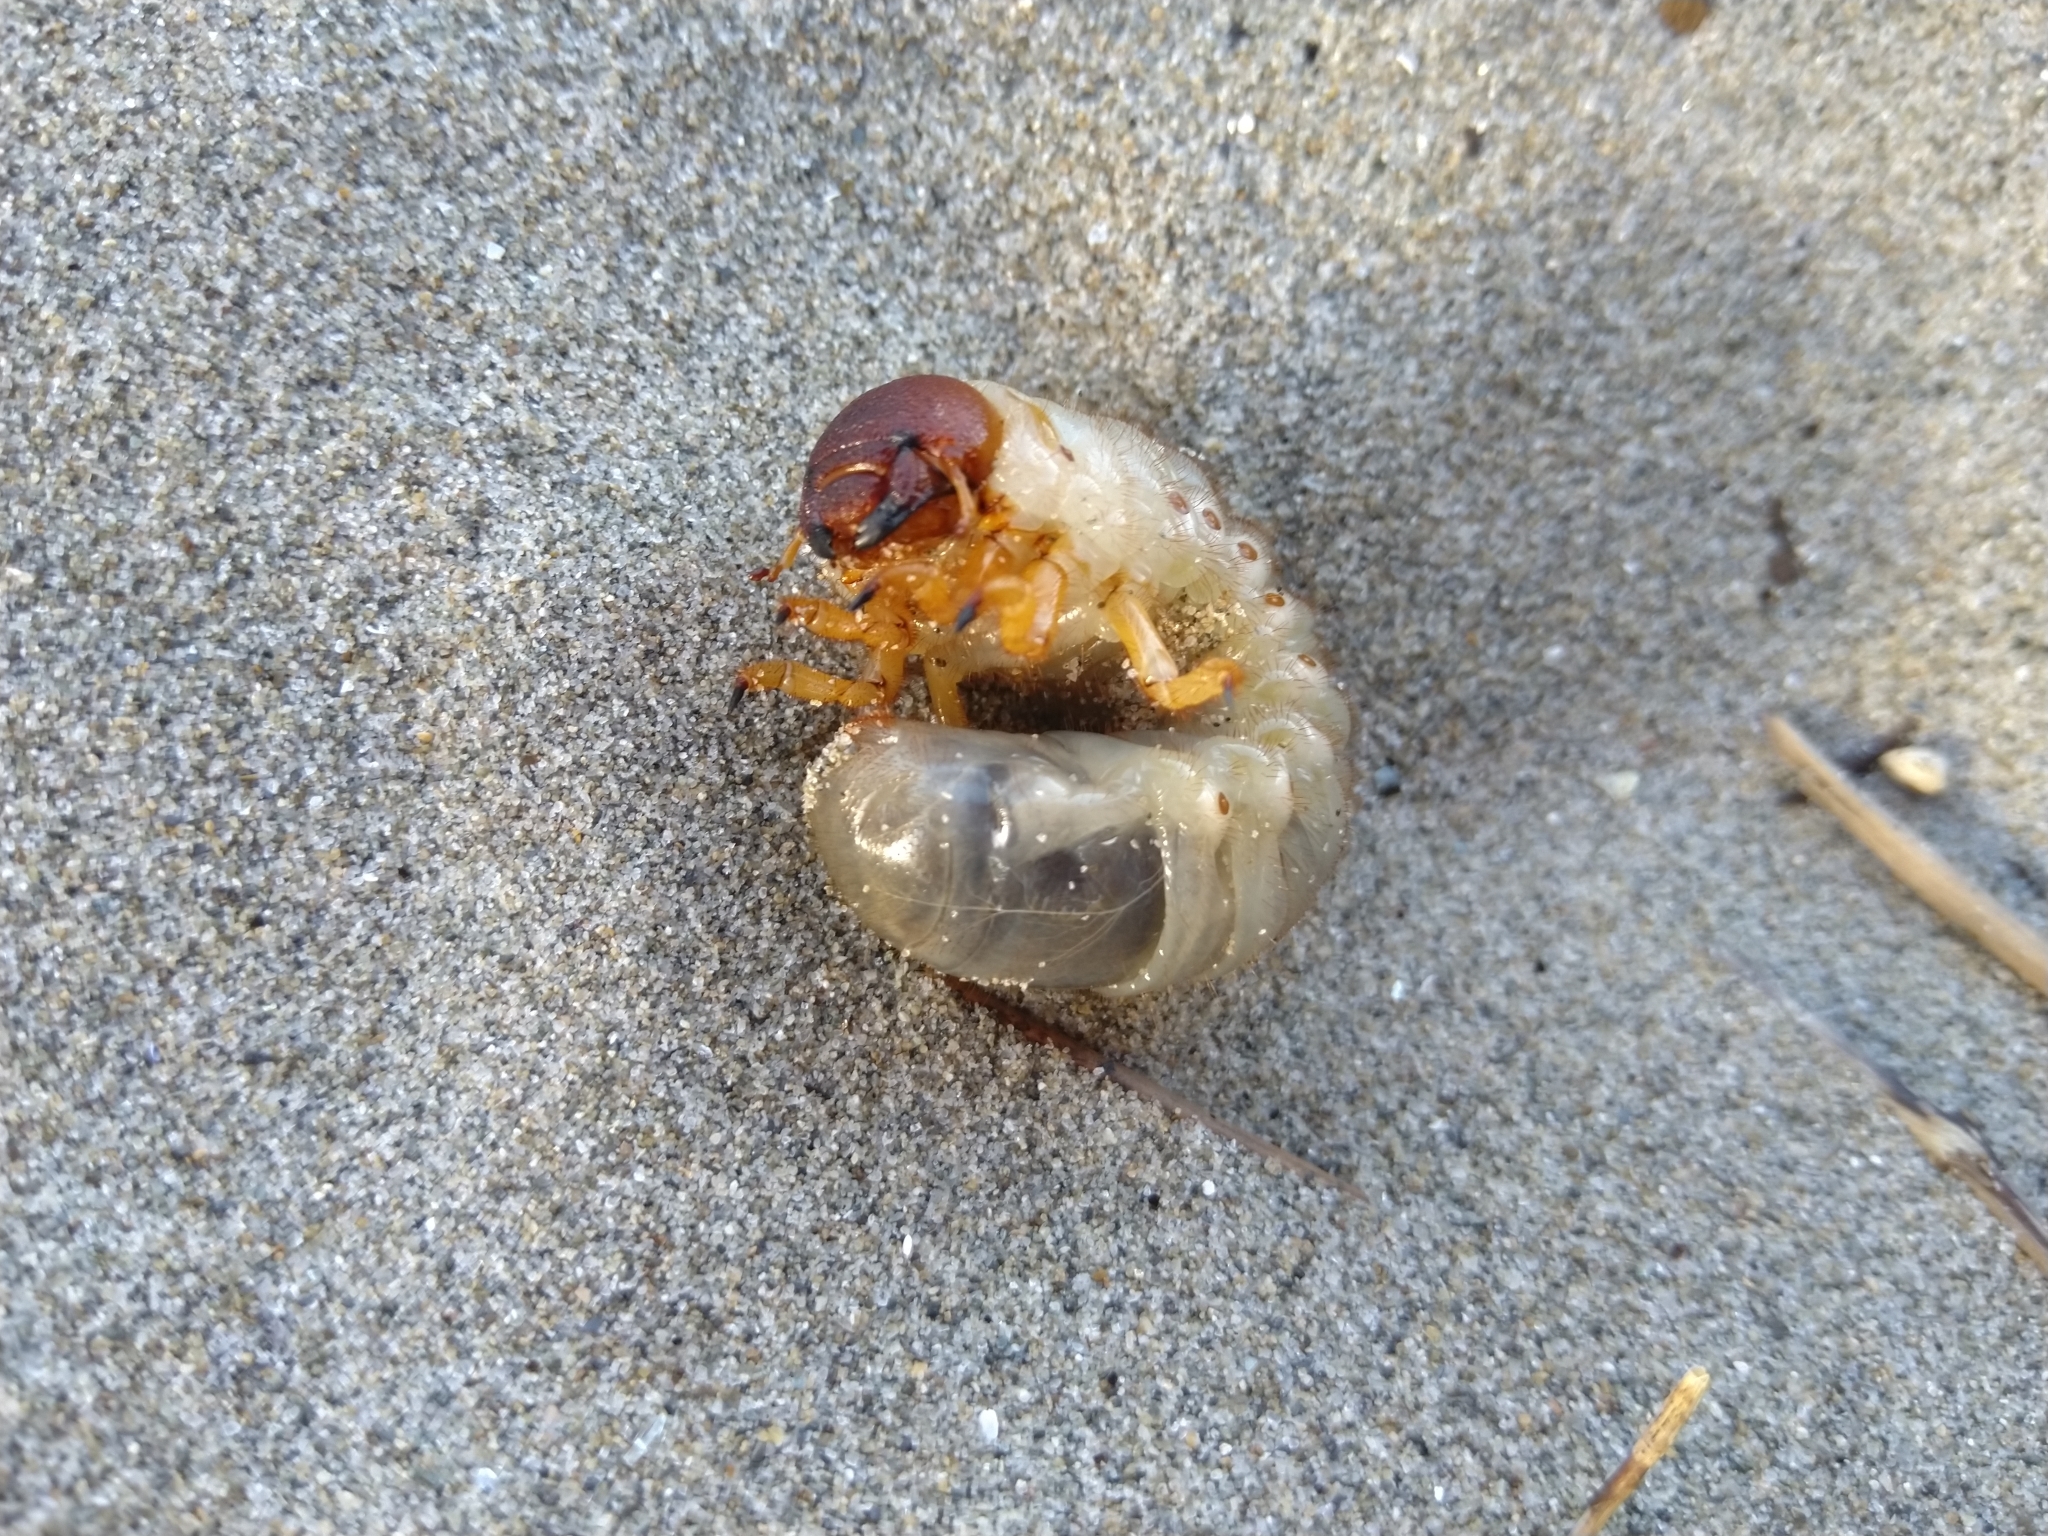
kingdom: Animalia
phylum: Arthropoda
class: Insecta
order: Coleoptera
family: Scarabaeidae
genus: Pericoptus
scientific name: Pericoptus truncatus
